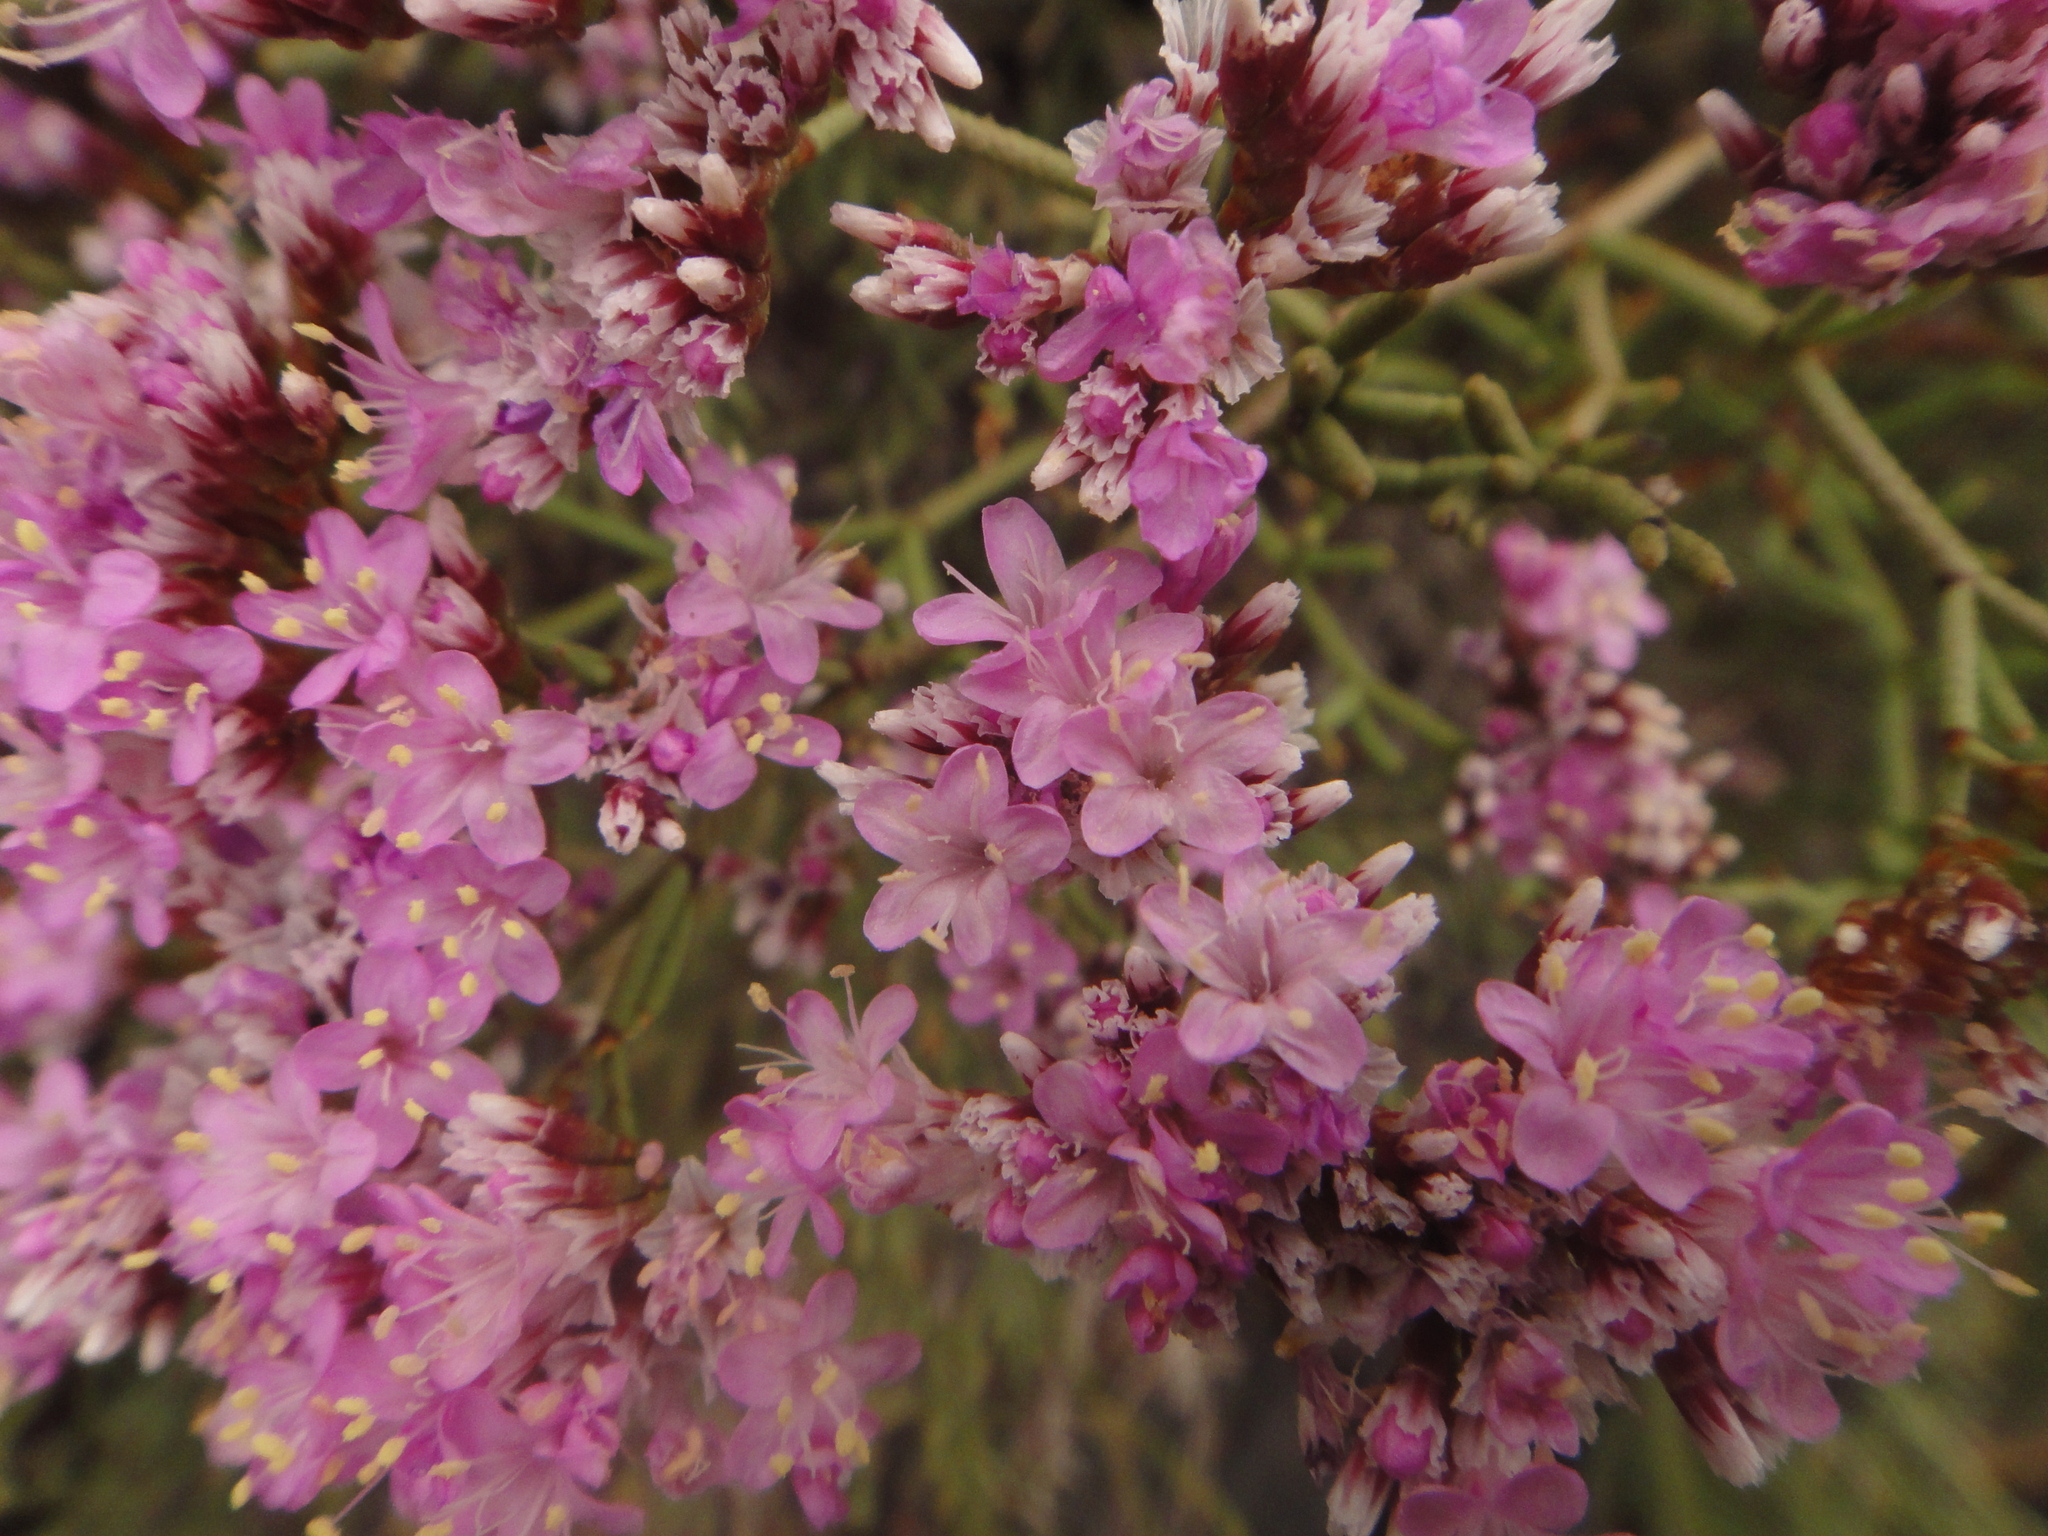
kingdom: Plantae
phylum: Tracheophyta
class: Magnoliopsida
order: Caryophyllales
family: Plumbaginaceae
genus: Limonium
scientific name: Limonium tuberculatum
